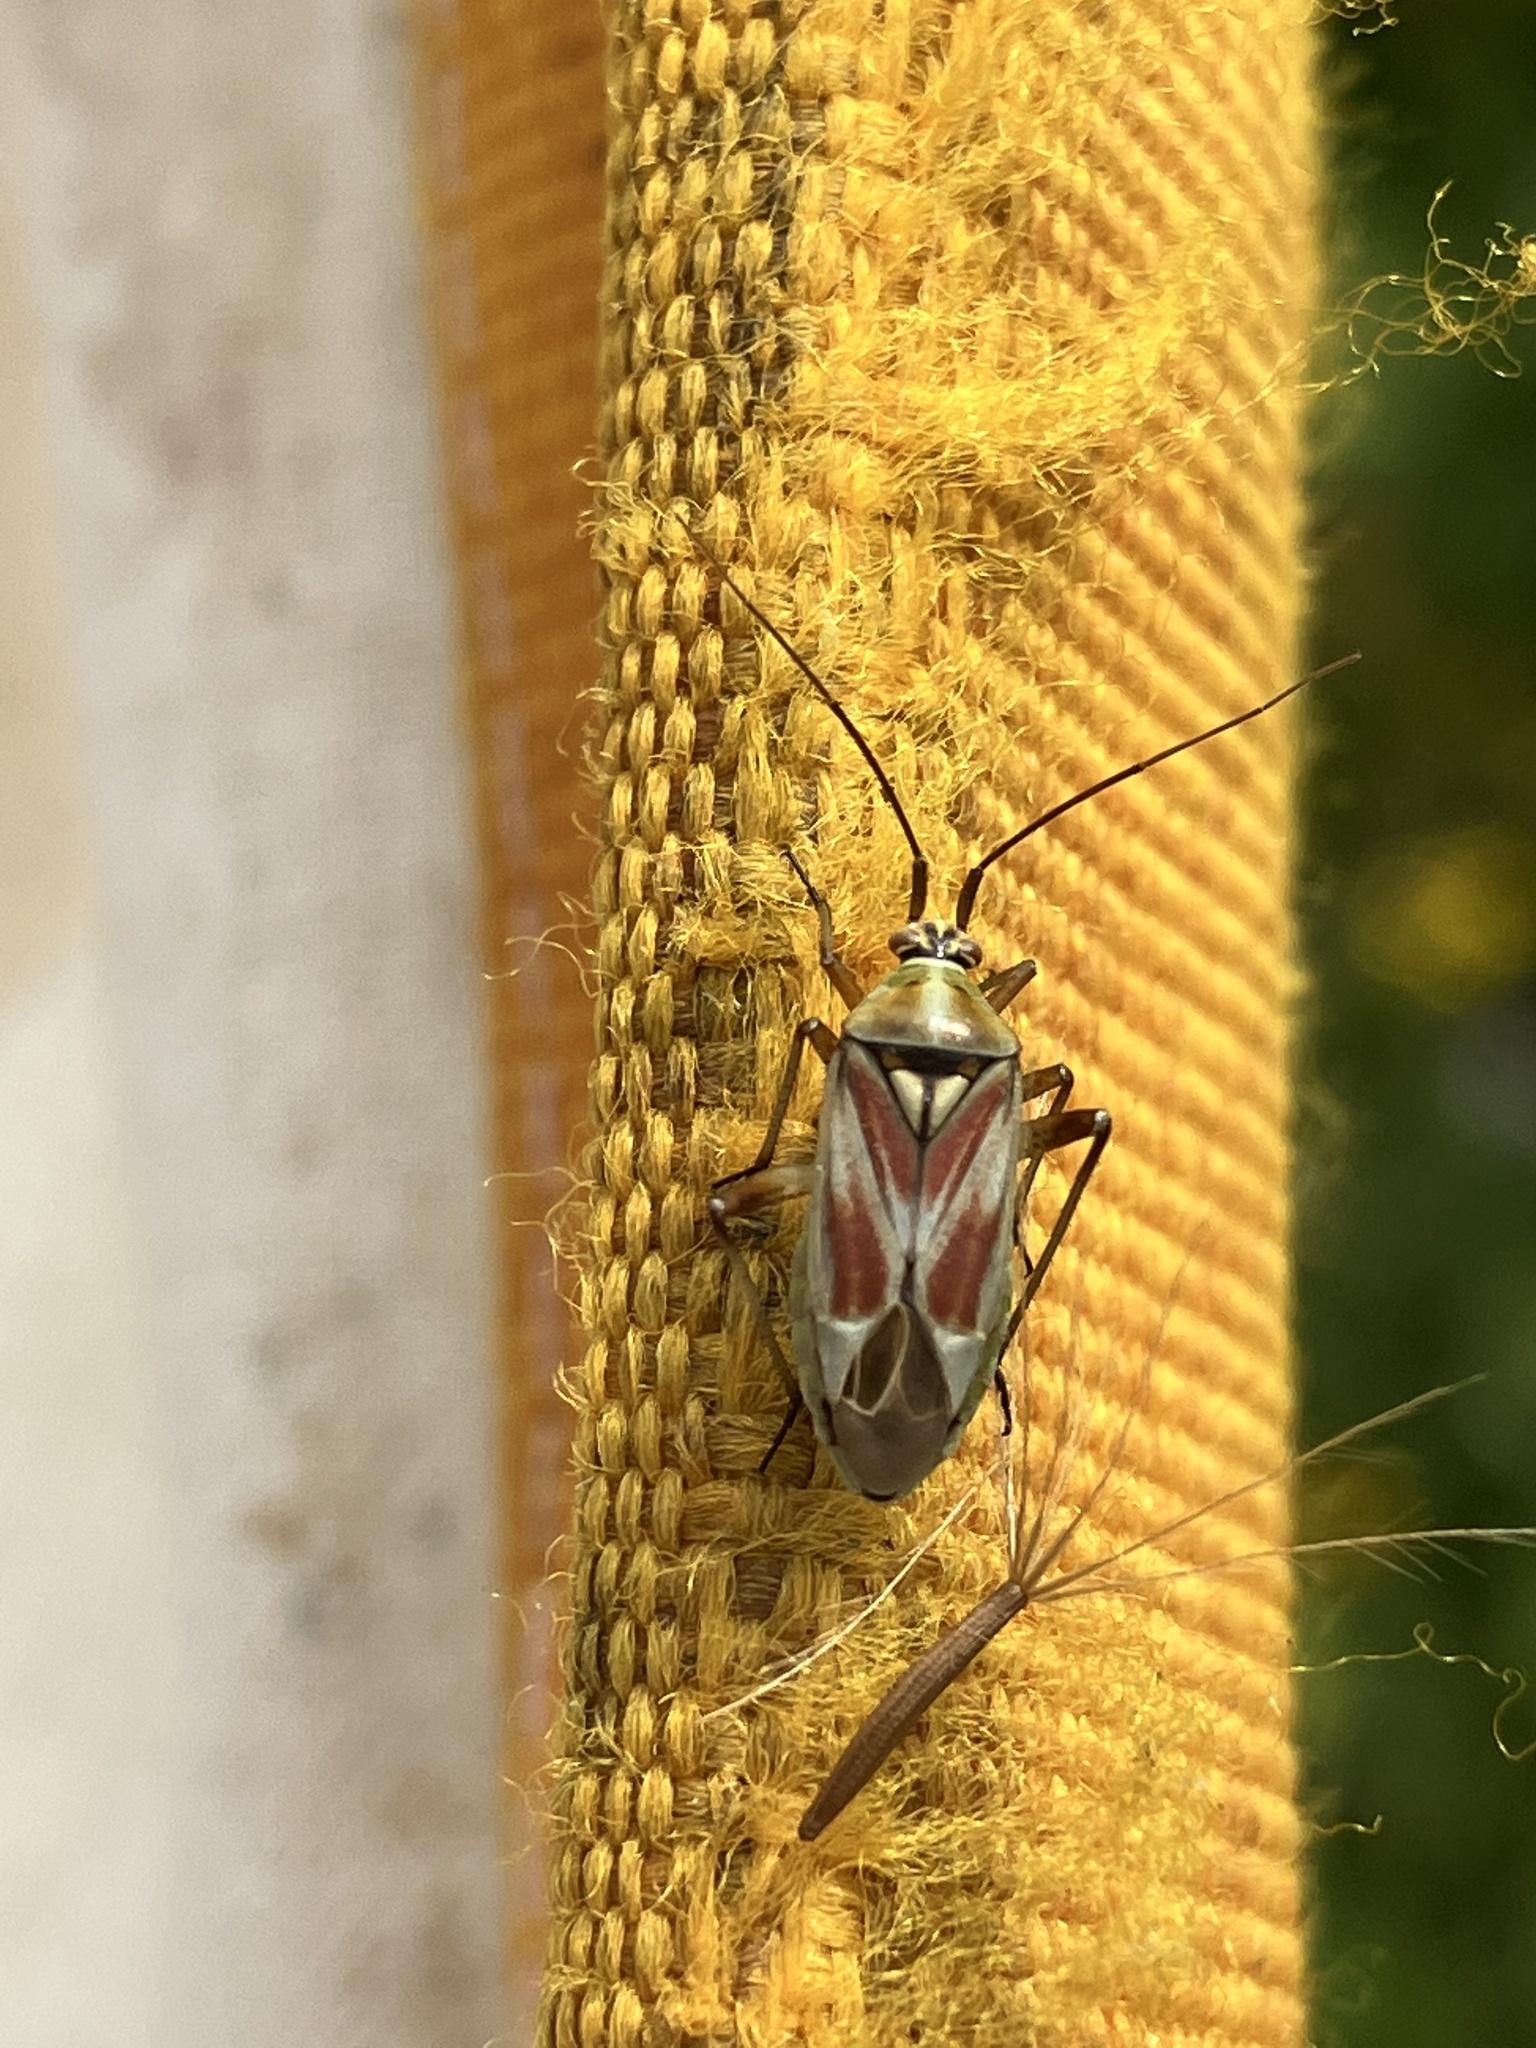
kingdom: Animalia
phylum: Arthropoda
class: Insecta
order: Hemiptera
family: Miridae
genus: Calocoris
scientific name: Calocoris roseomaculatus
